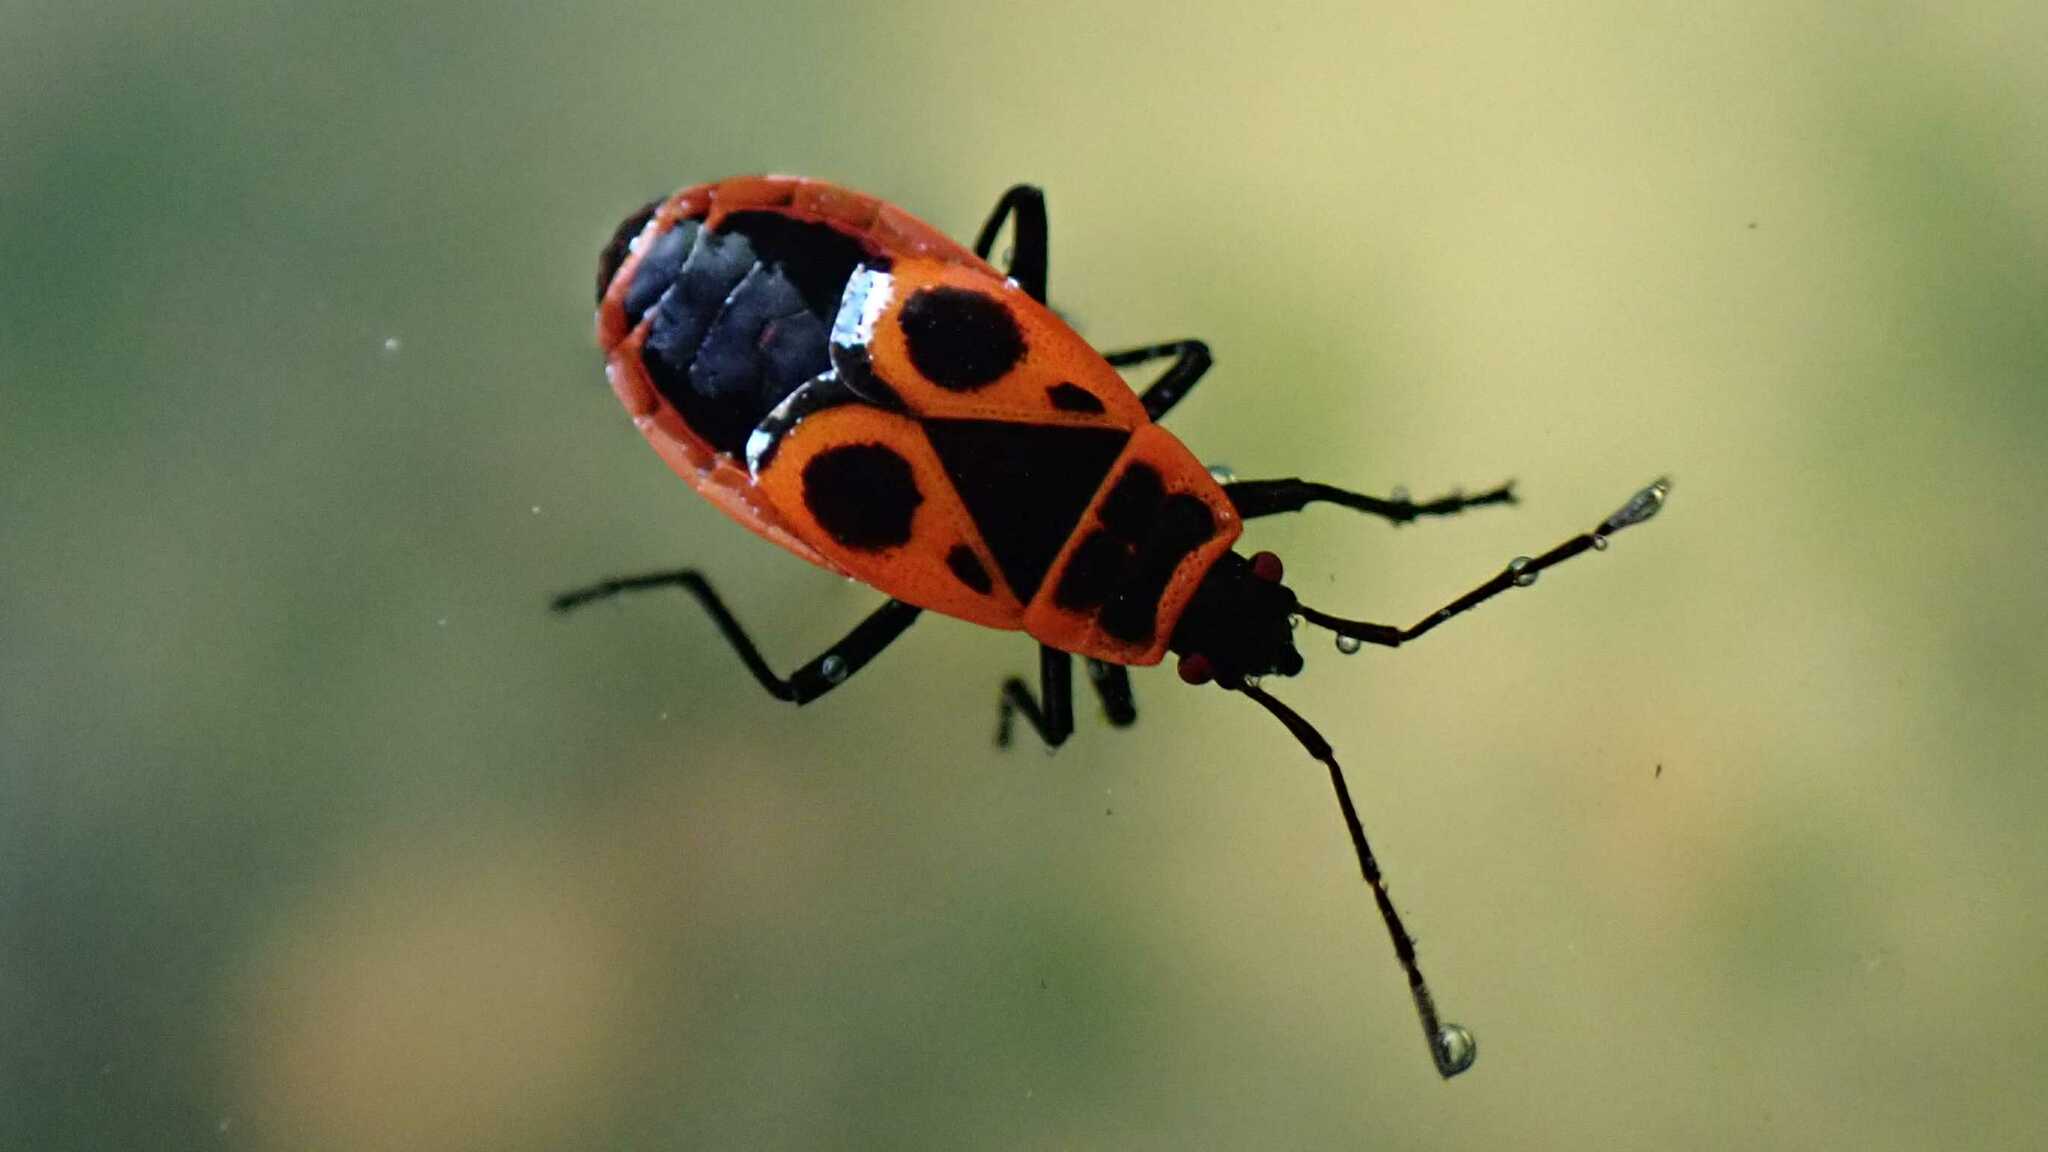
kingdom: Animalia
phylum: Arthropoda
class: Insecta
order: Hemiptera
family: Pyrrhocoridae
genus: Pyrrhocoris
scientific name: Pyrrhocoris apterus
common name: Firebug
